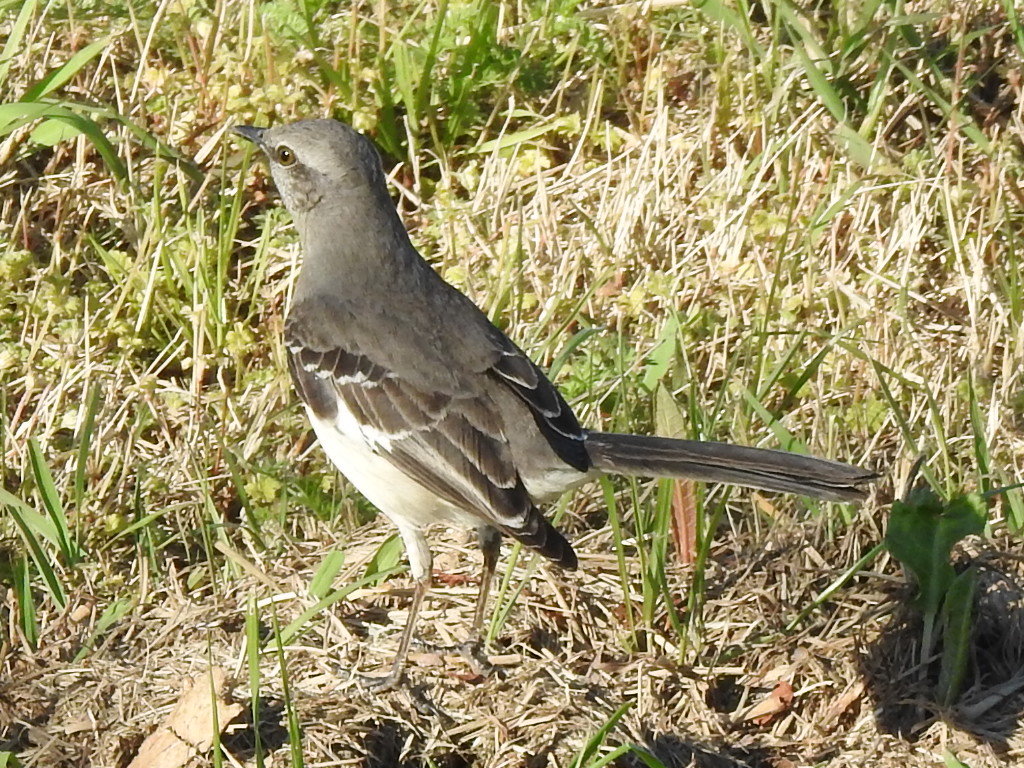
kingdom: Animalia
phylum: Chordata
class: Aves
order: Passeriformes
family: Mimidae
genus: Mimus
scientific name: Mimus polyglottos
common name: Northern mockingbird
